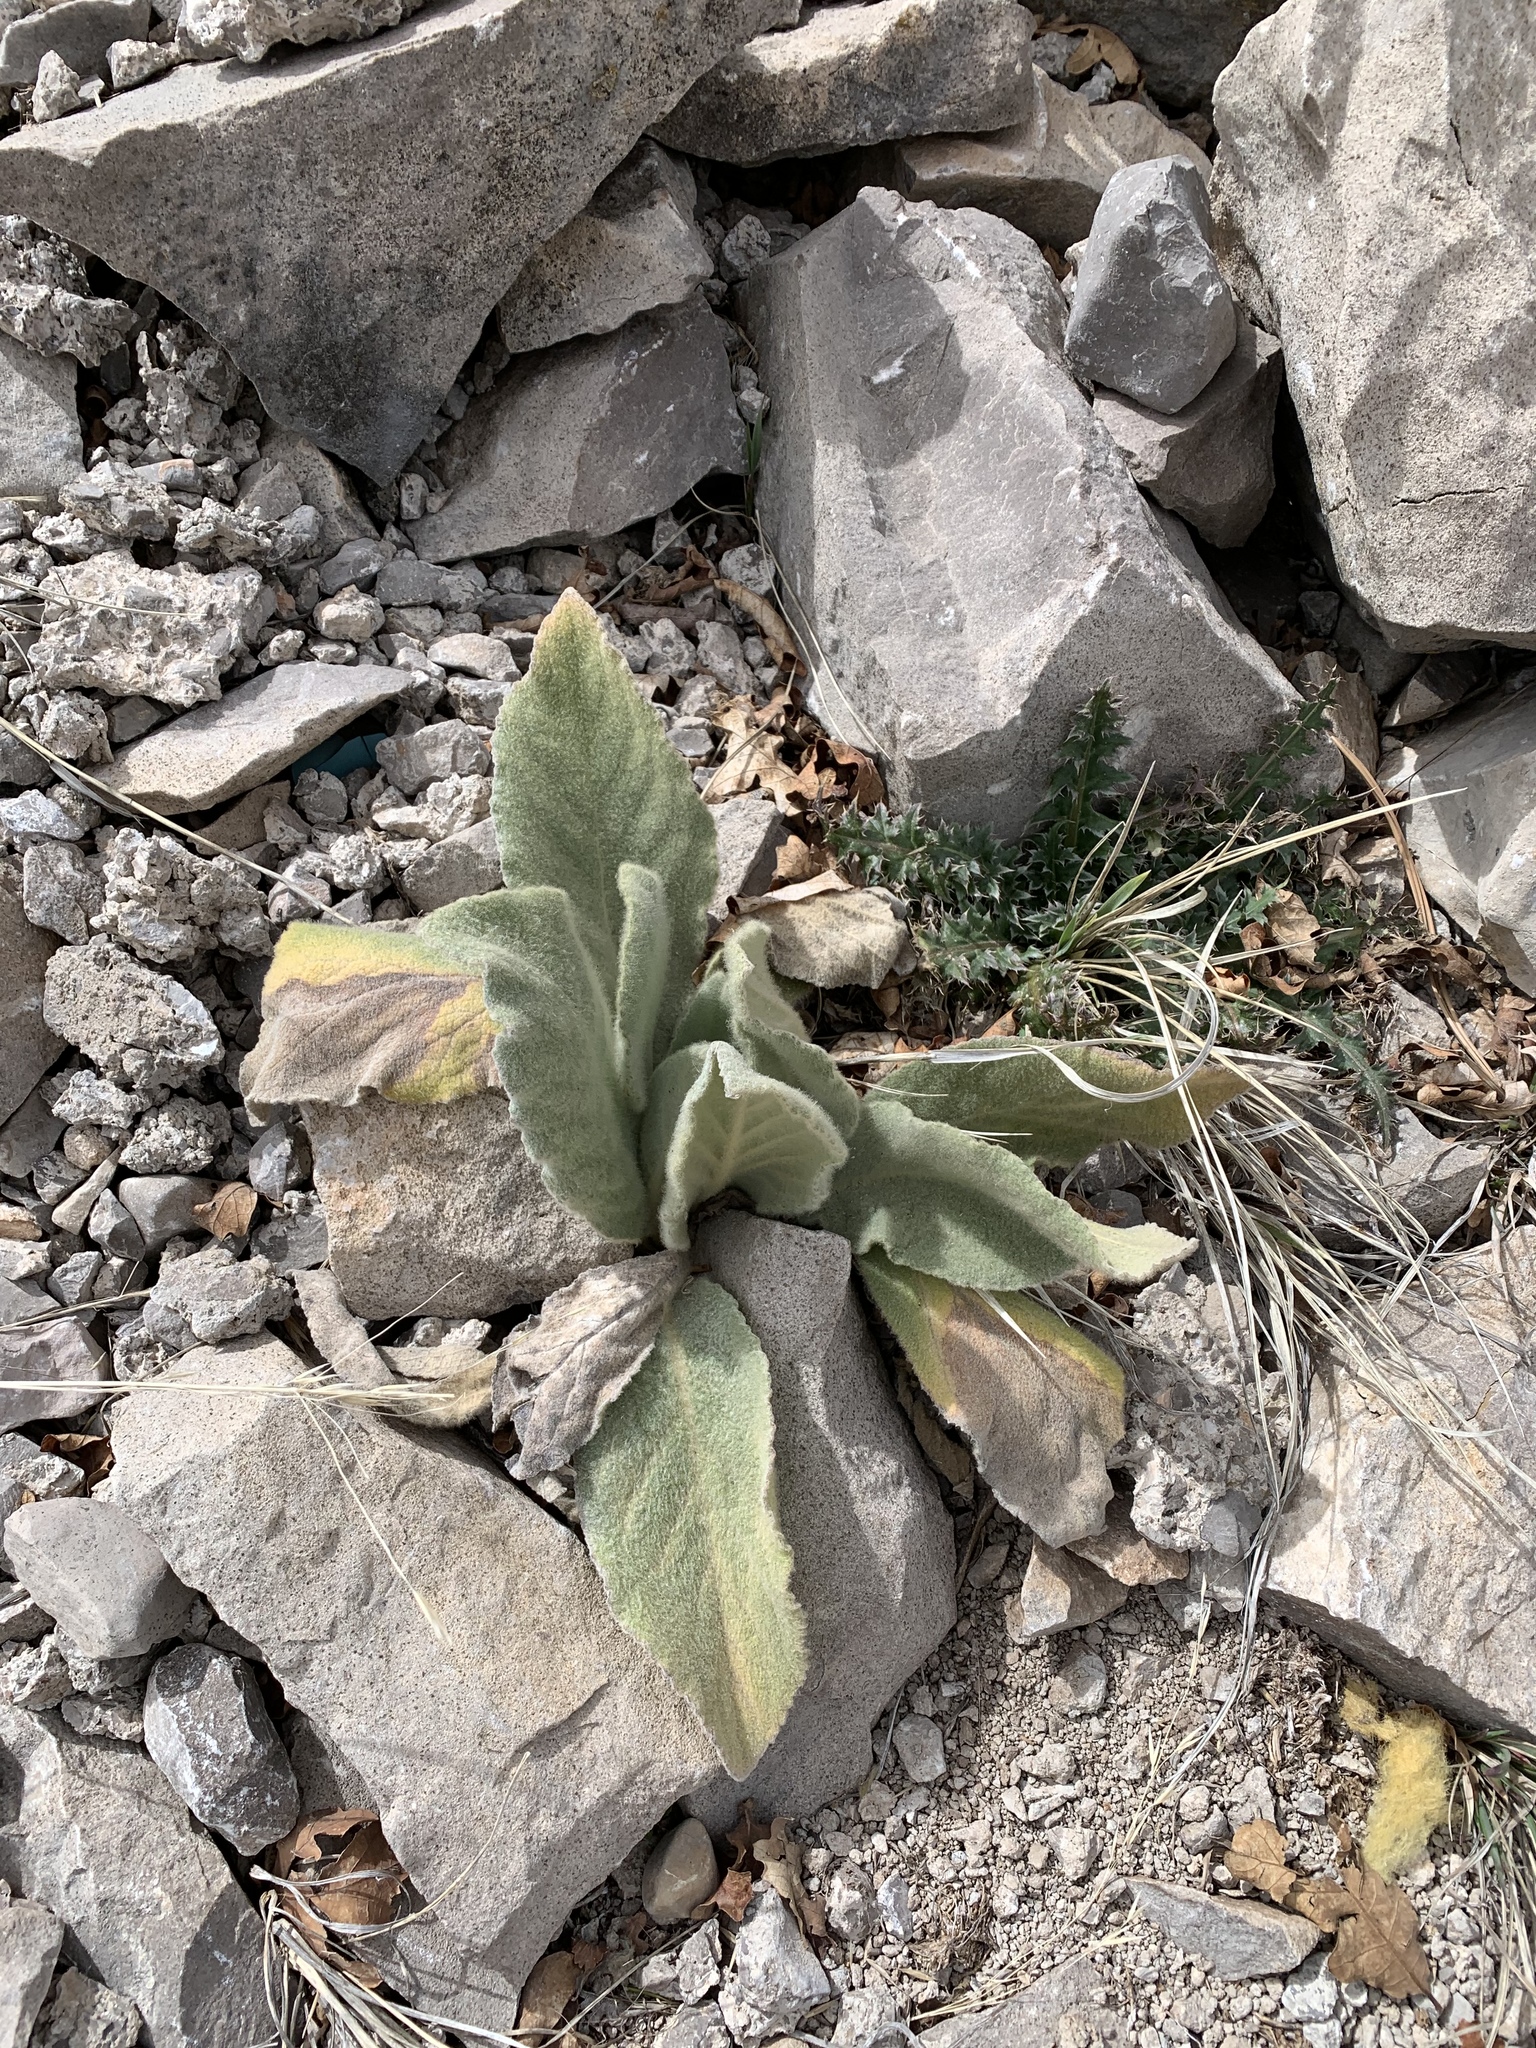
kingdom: Plantae
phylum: Tracheophyta
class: Magnoliopsida
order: Lamiales
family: Scrophulariaceae
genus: Verbascum
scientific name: Verbascum thapsus
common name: Common mullein
